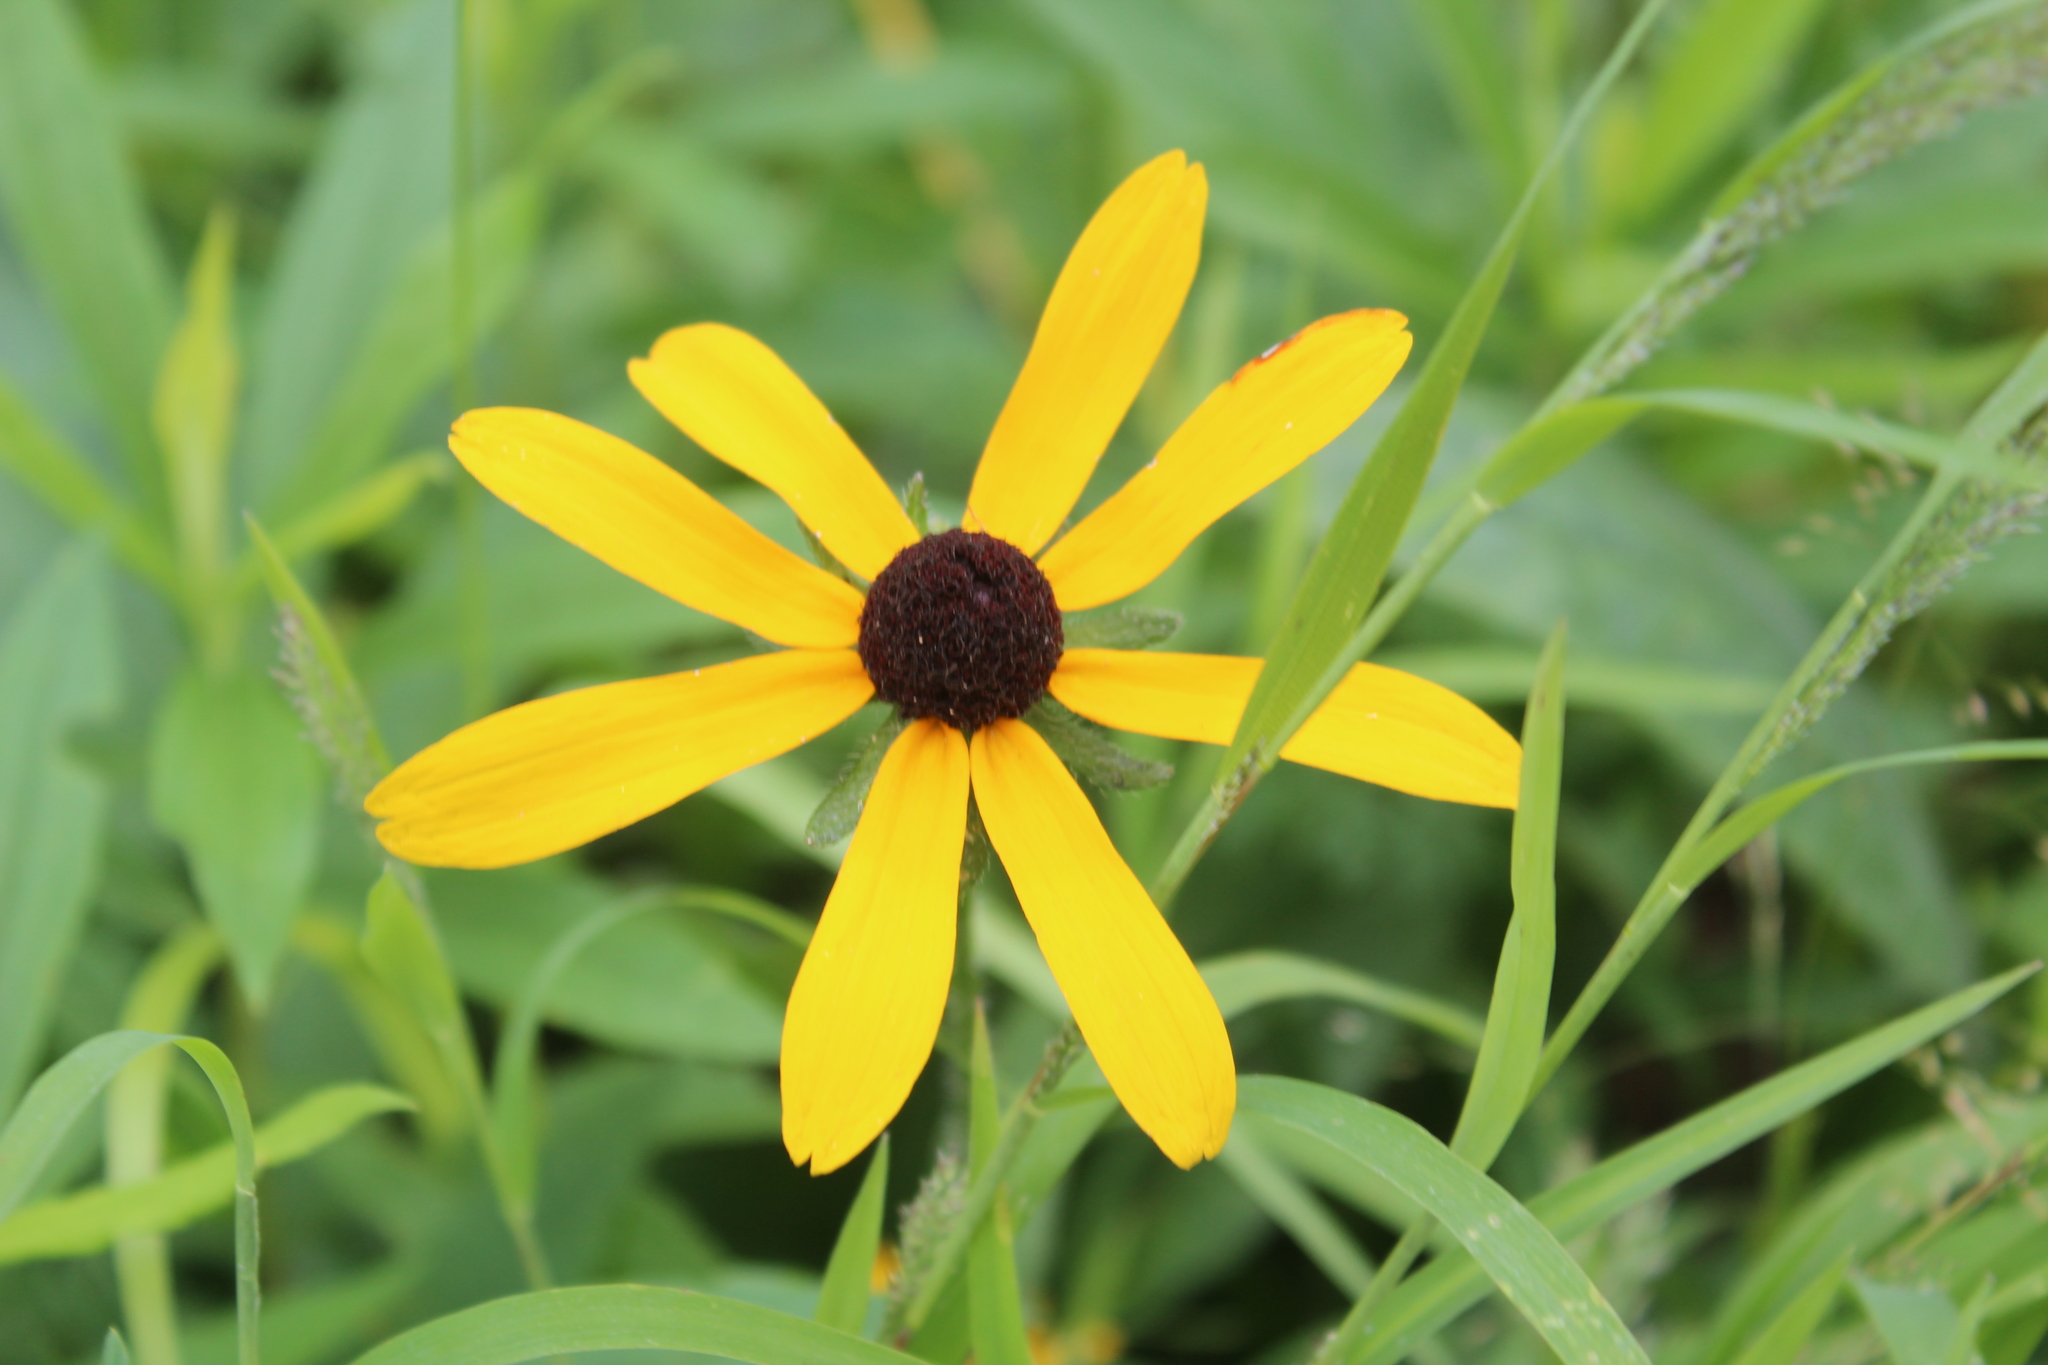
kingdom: Plantae
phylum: Tracheophyta
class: Magnoliopsida
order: Asterales
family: Asteraceae
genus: Rudbeckia
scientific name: Rudbeckia hirta
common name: Black-eyed-susan
